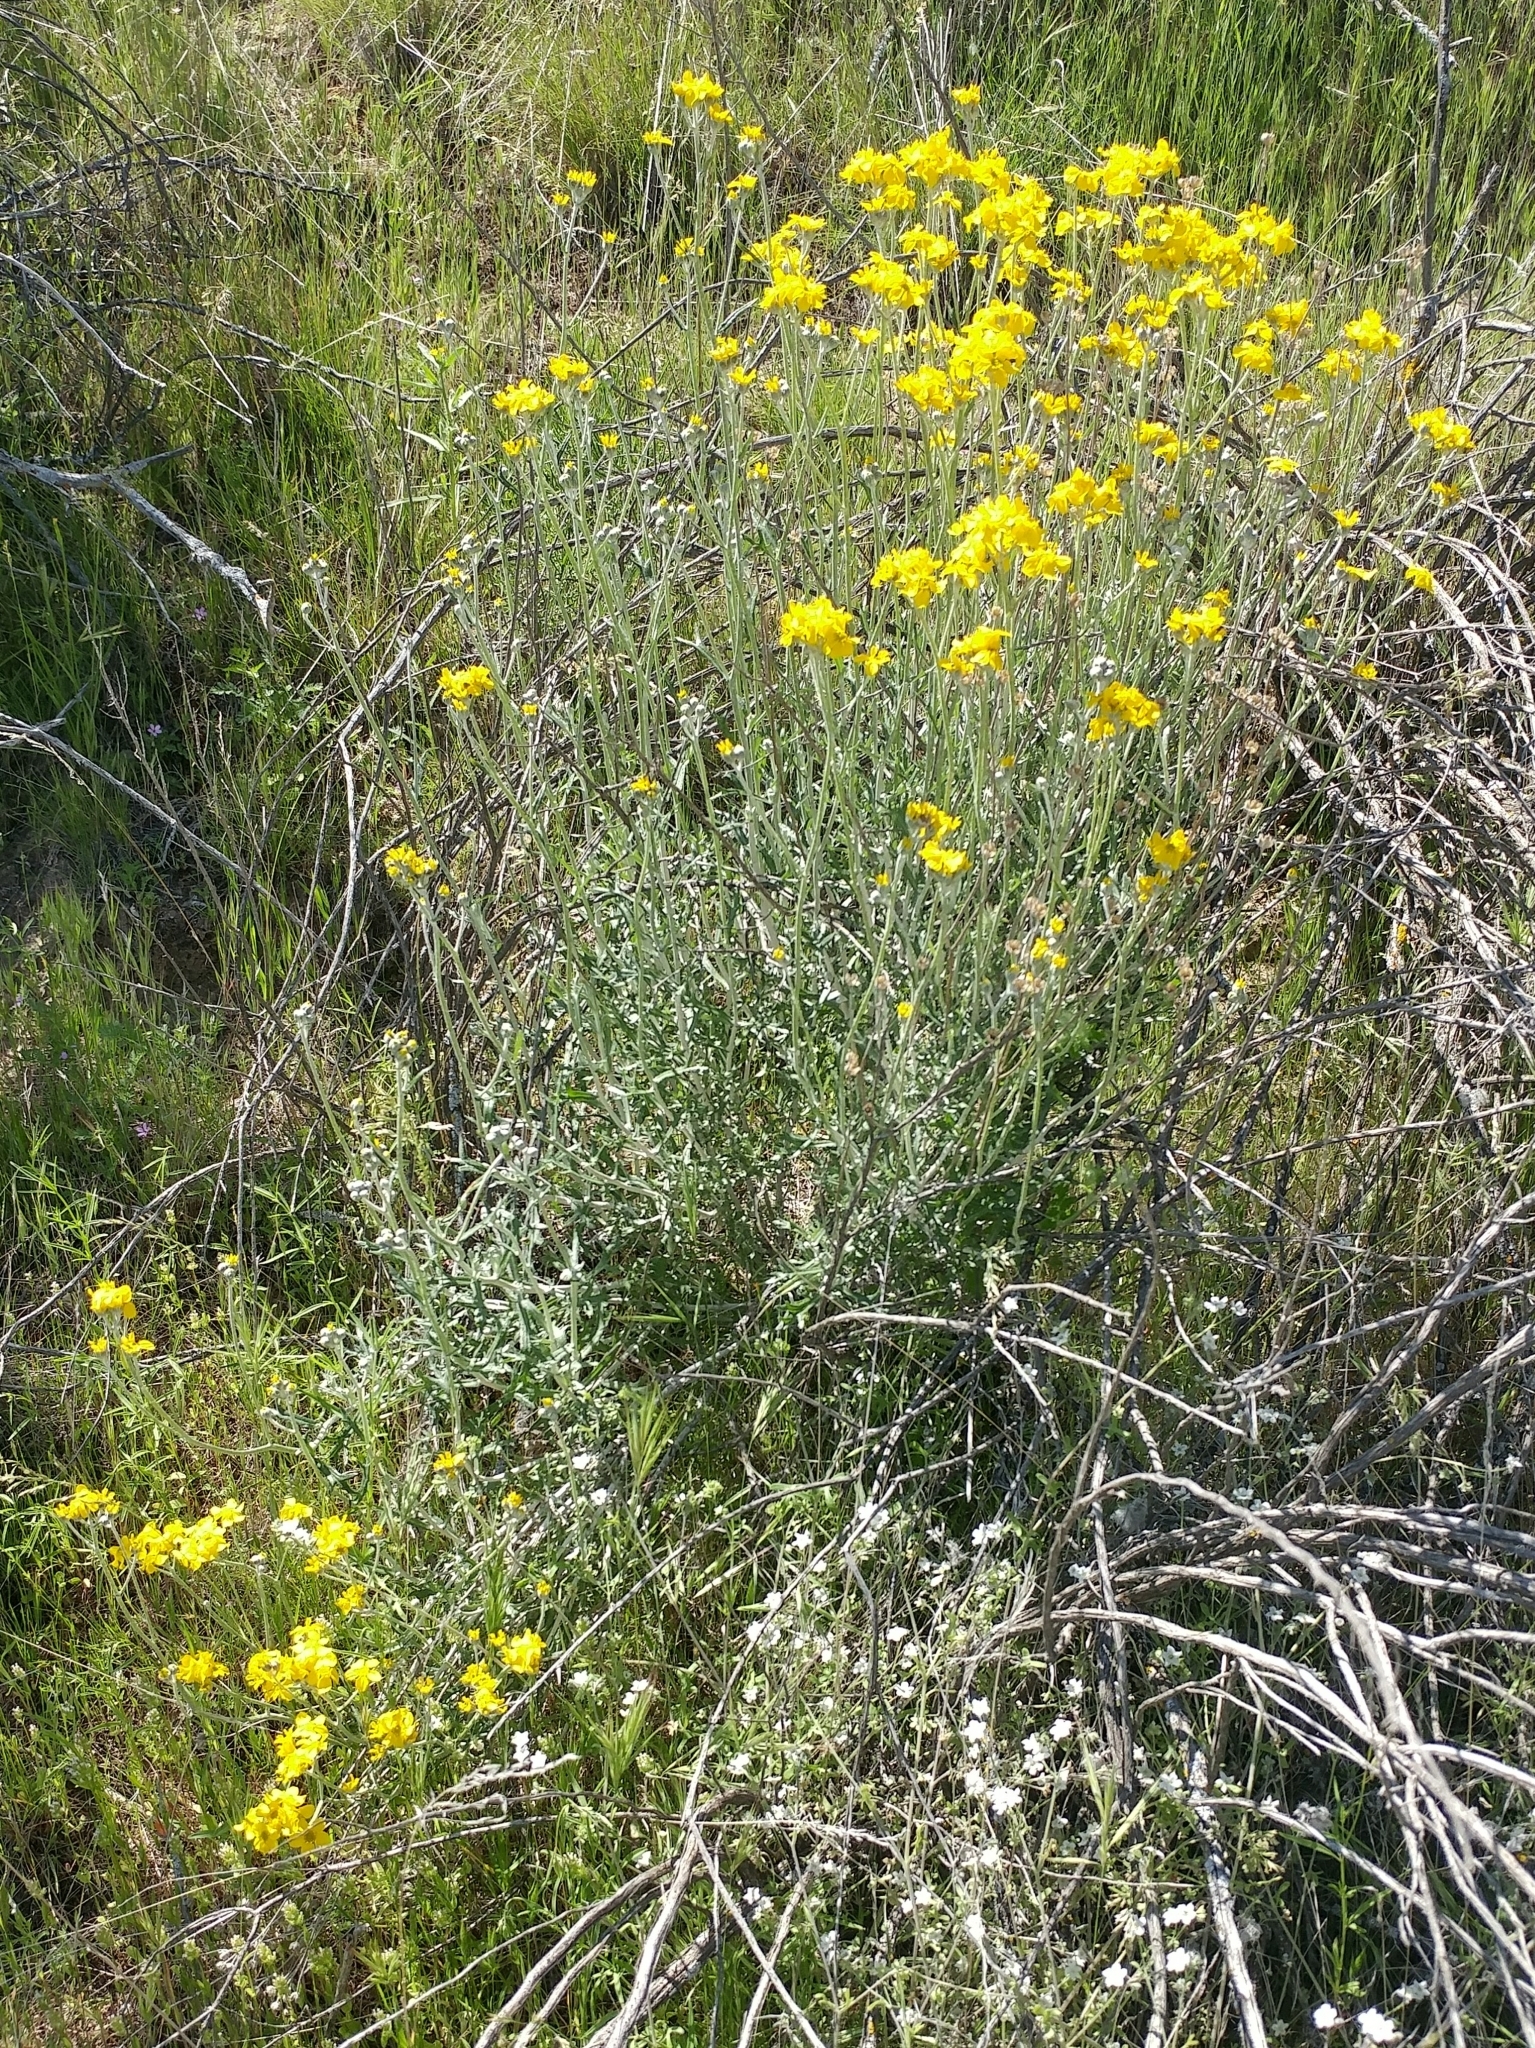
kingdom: Plantae
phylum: Tracheophyta
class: Magnoliopsida
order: Asterales
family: Asteraceae
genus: Eriophyllum
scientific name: Eriophyllum confertiflorum
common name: Golden-yarrow
